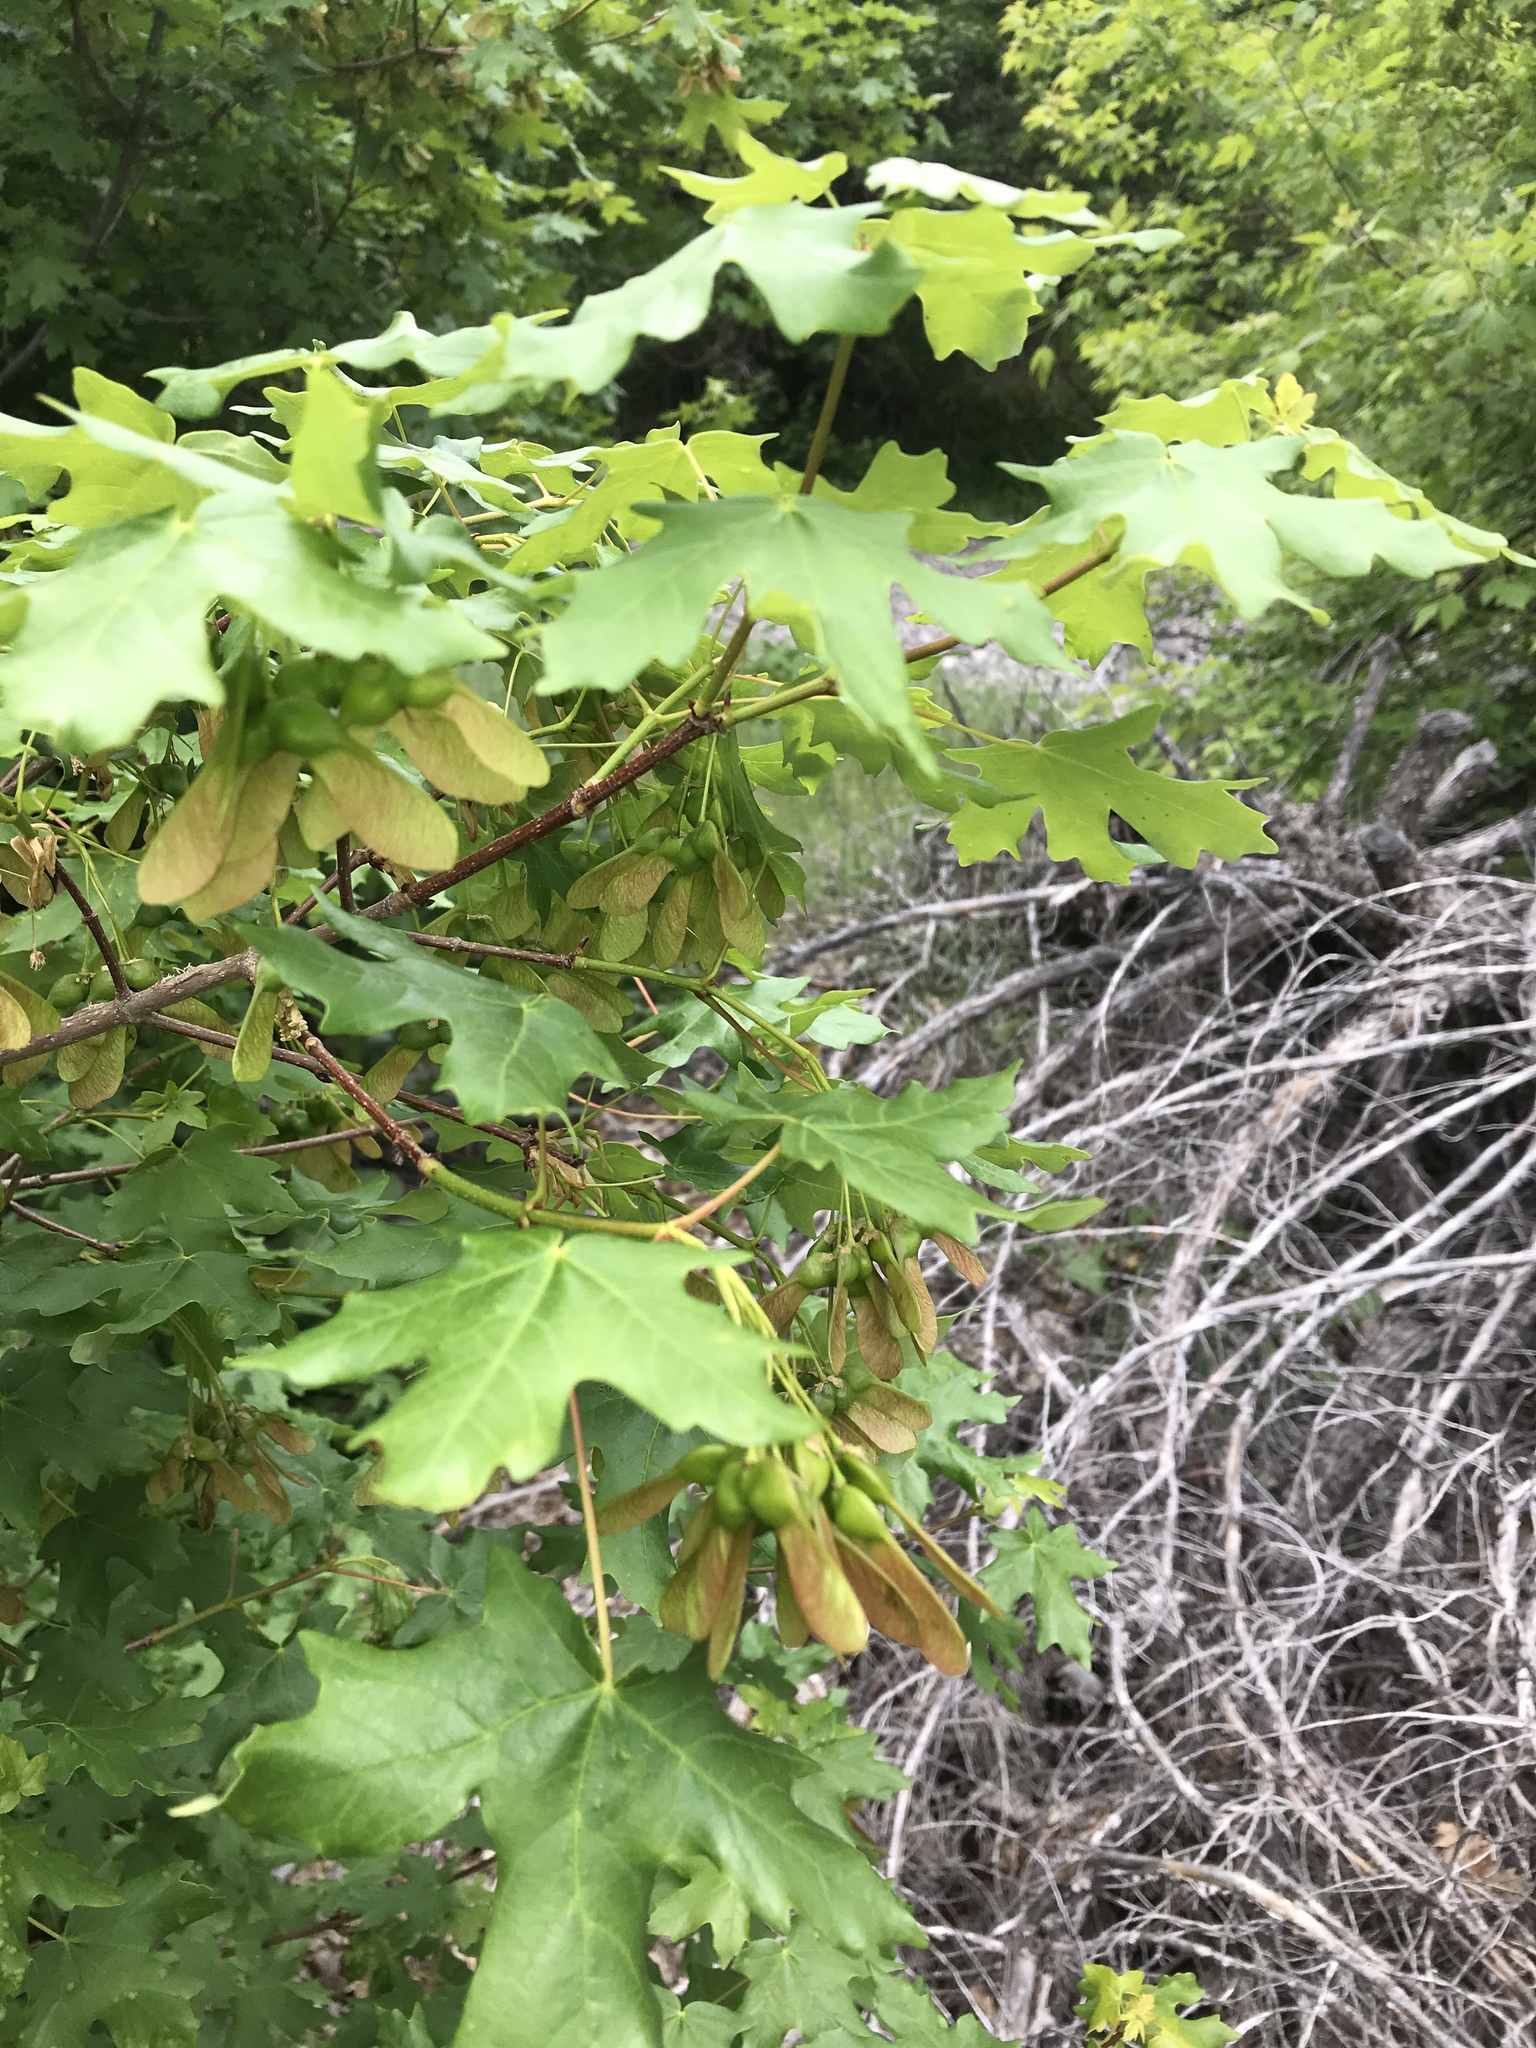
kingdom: Plantae
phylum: Tracheophyta
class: Magnoliopsida
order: Sapindales
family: Sapindaceae
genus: Acer
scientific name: Acer grandidentatum
